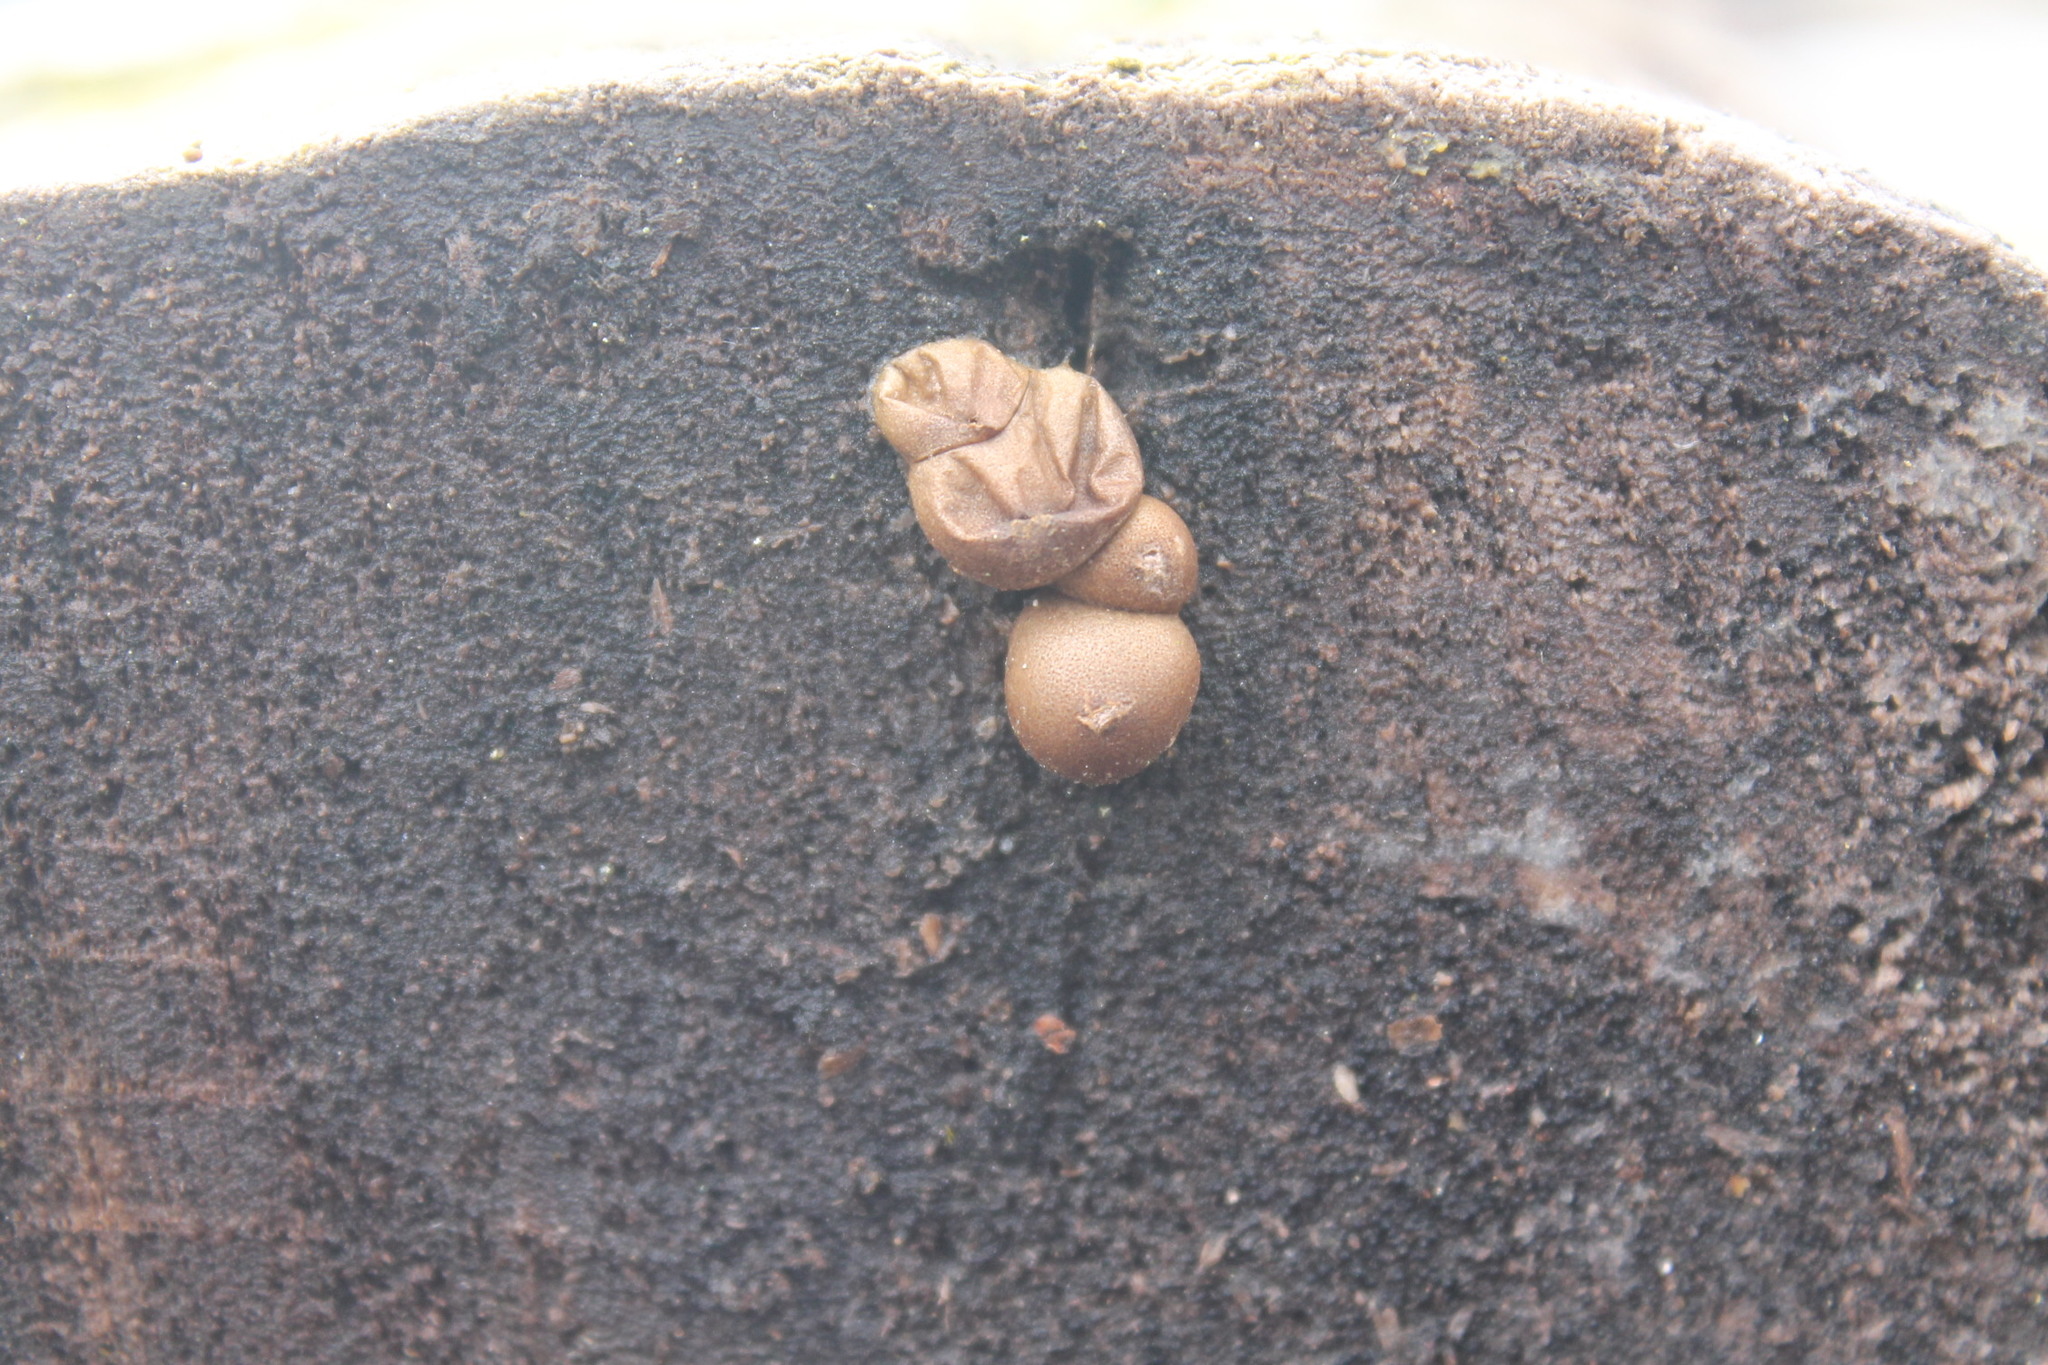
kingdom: Protozoa
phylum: Mycetozoa
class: Myxomycetes
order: Cribrariales
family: Tubiferaceae
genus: Lycogala
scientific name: Lycogala epidendrum
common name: Wolf's milk
